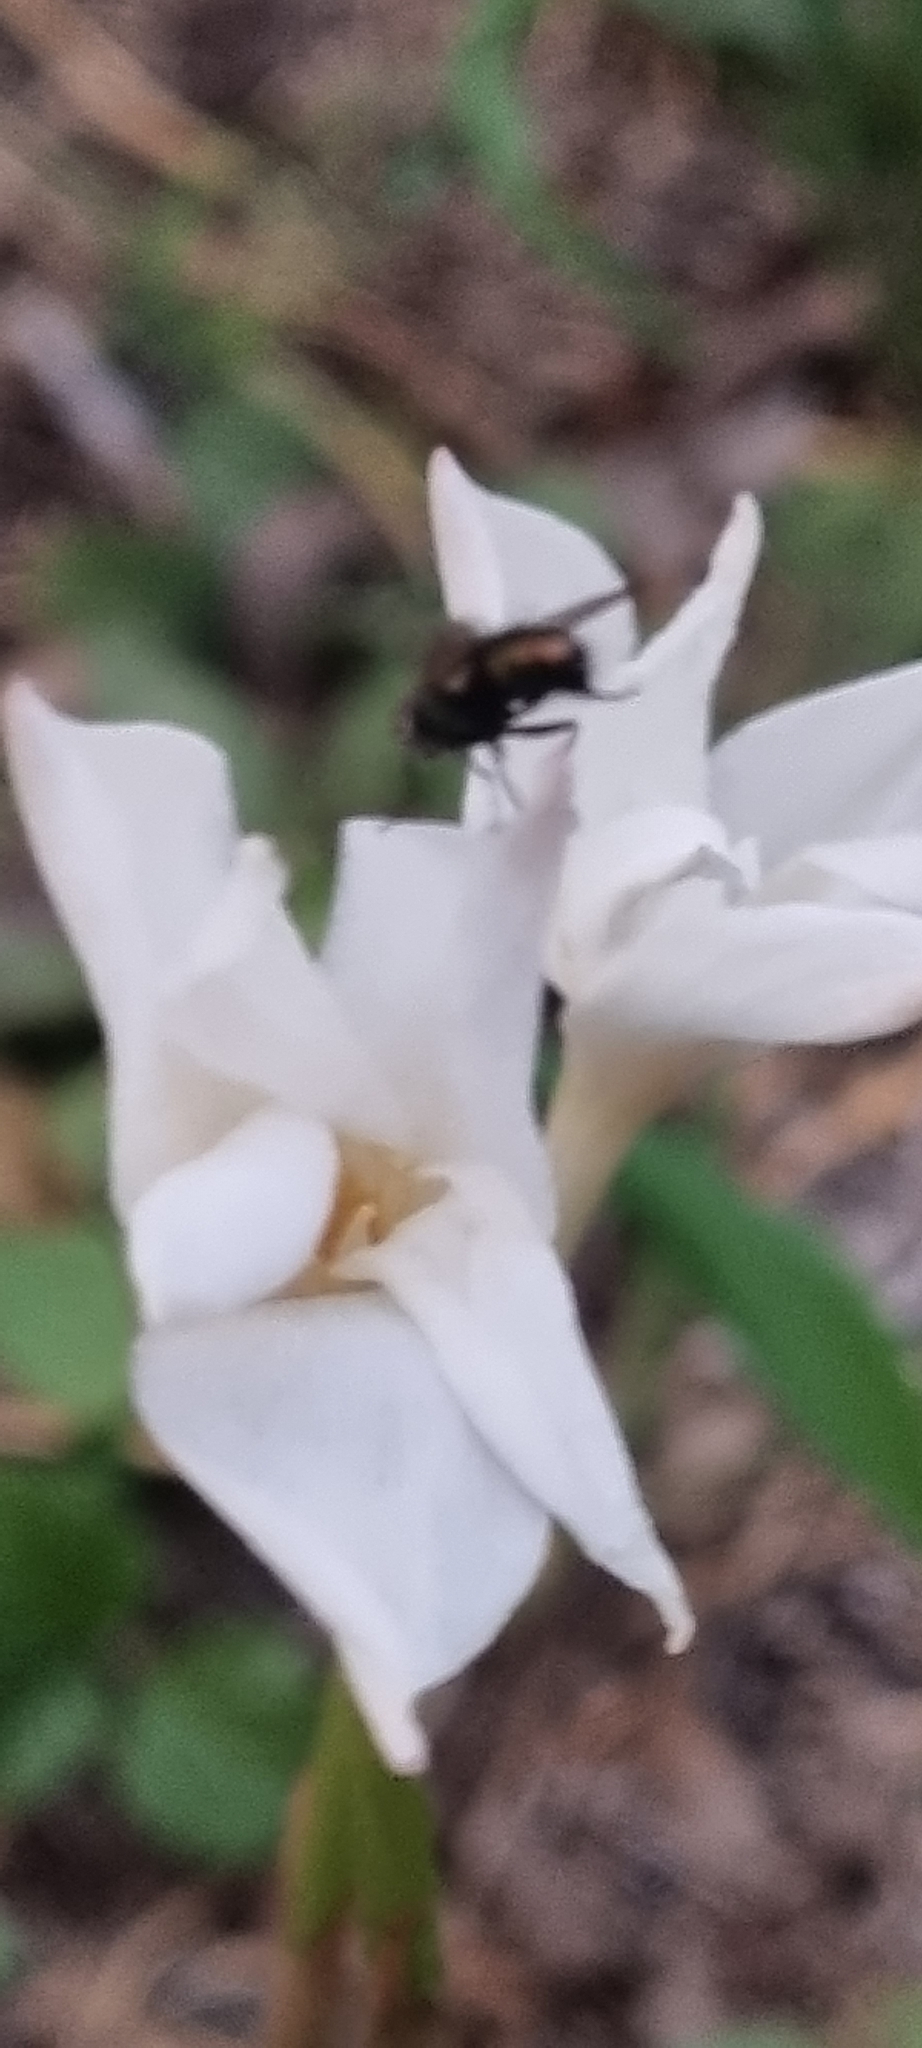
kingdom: Plantae
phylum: Tracheophyta
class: Liliopsida
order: Asparagales
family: Amaryllidaceae
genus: Zephyranthes
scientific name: Zephyranthes chlorosolen
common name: Evening rain-lily
